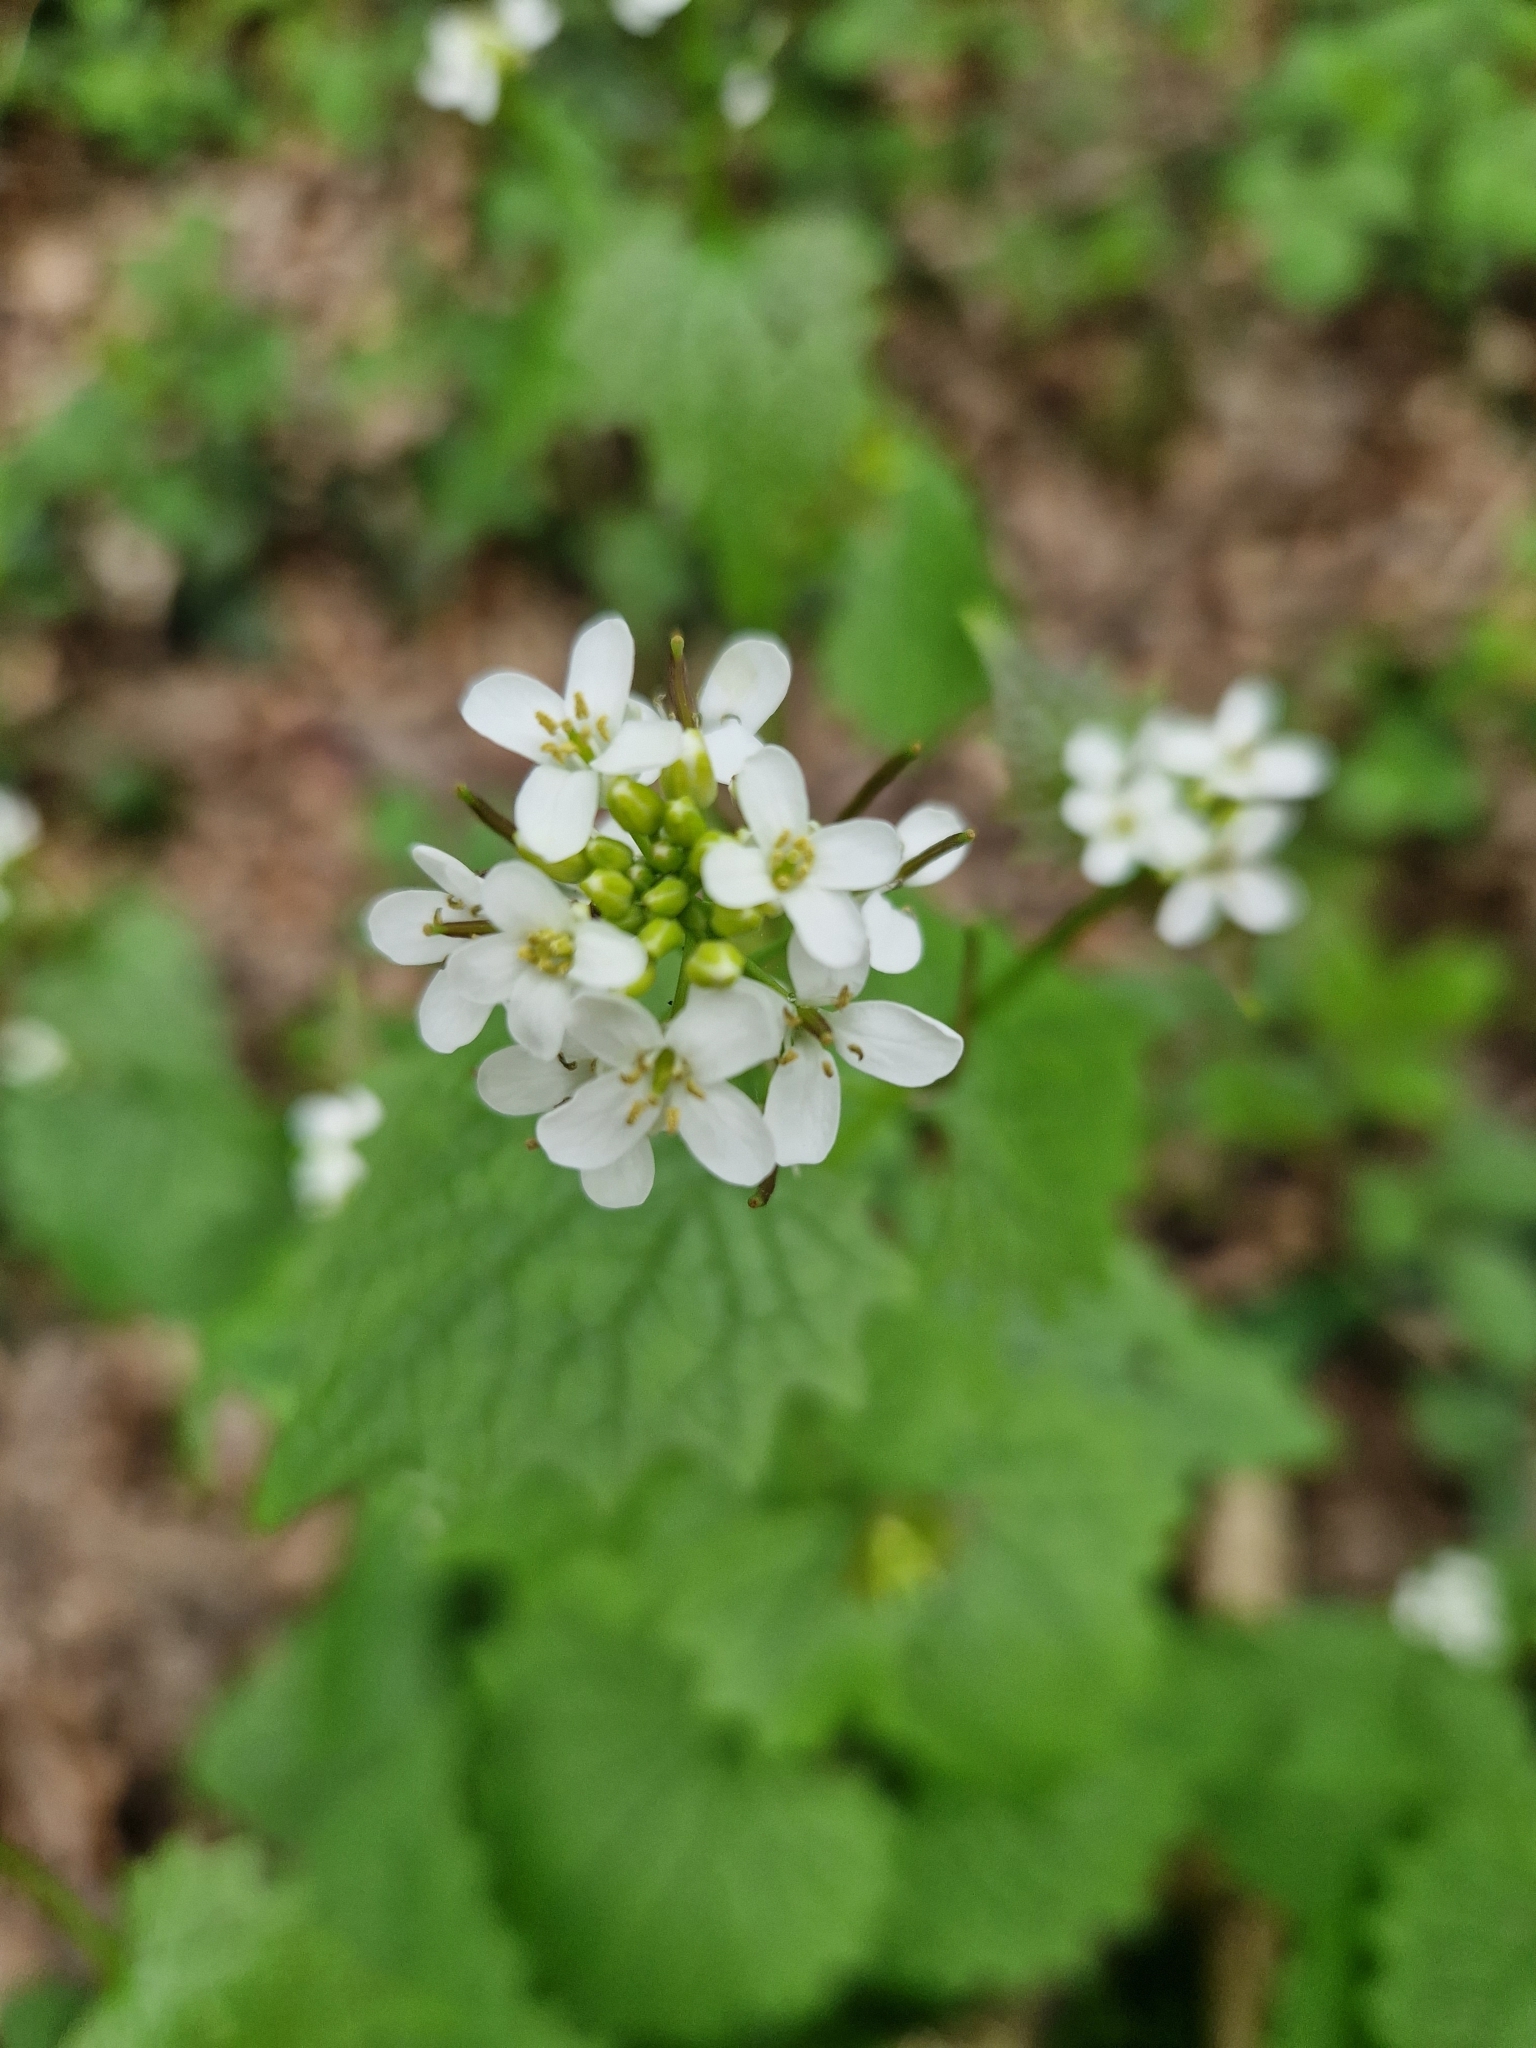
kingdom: Plantae
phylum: Tracheophyta
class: Magnoliopsida
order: Brassicales
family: Brassicaceae
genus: Alliaria
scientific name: Alliaria petiolata
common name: Garlic mustard
